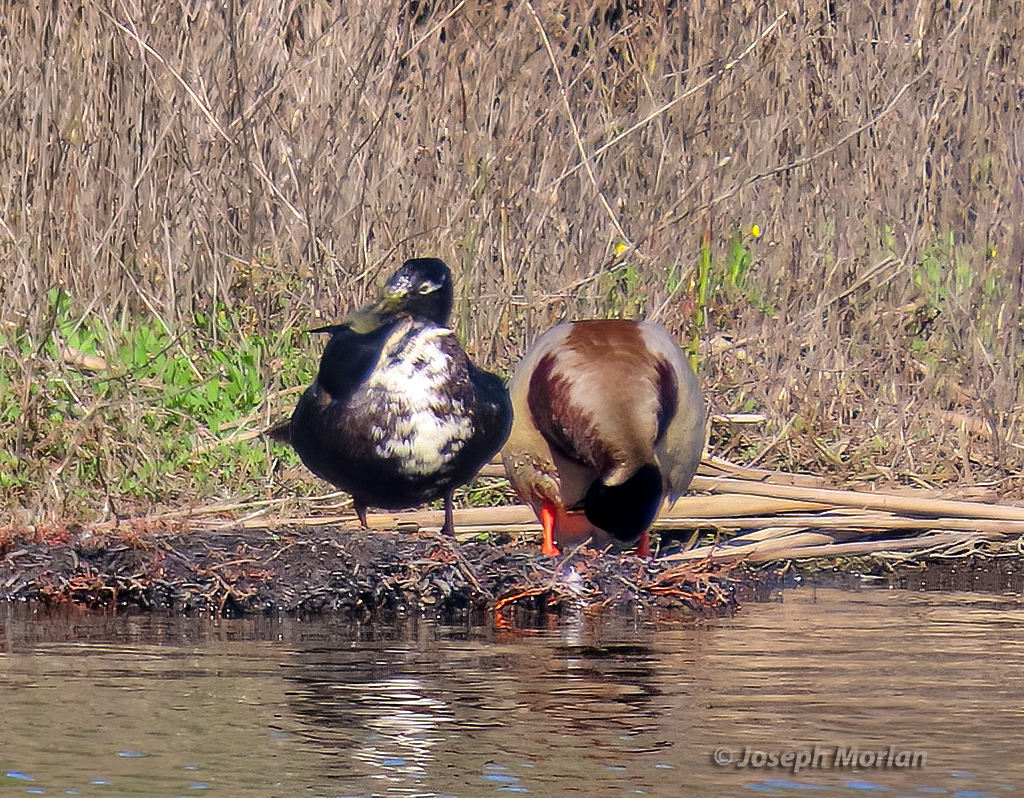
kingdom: Animalia
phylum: Chordata
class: Aves
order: Anseriformes
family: Anatidae
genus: Anas
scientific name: Anas platyrhynchos
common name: Mallard
